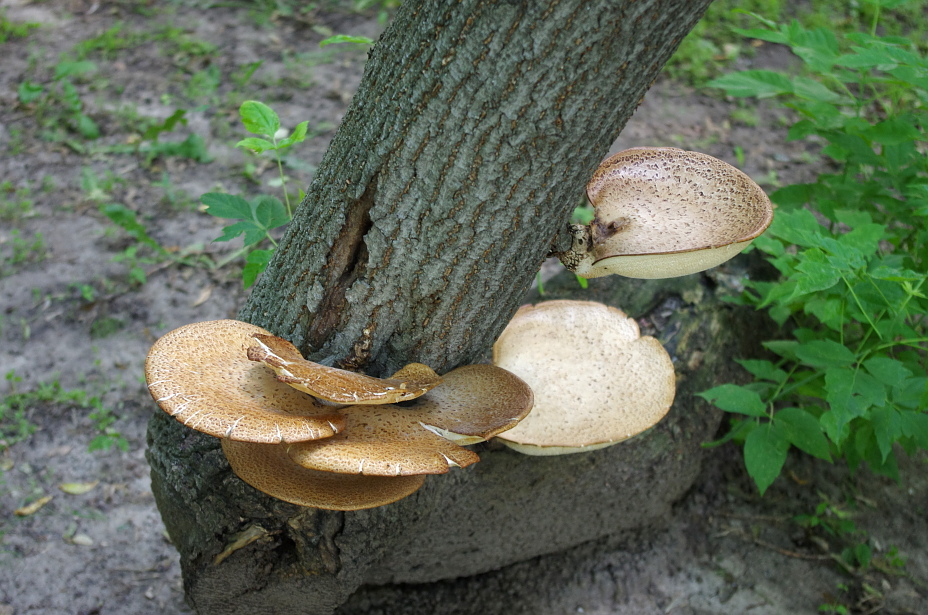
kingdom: Fungi
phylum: Basidiomycota
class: Agaricomycetes
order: Polyporales
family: Polyporaceae
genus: Cerioporus
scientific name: Cerioporus squamosus
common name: Dryad's saddle
